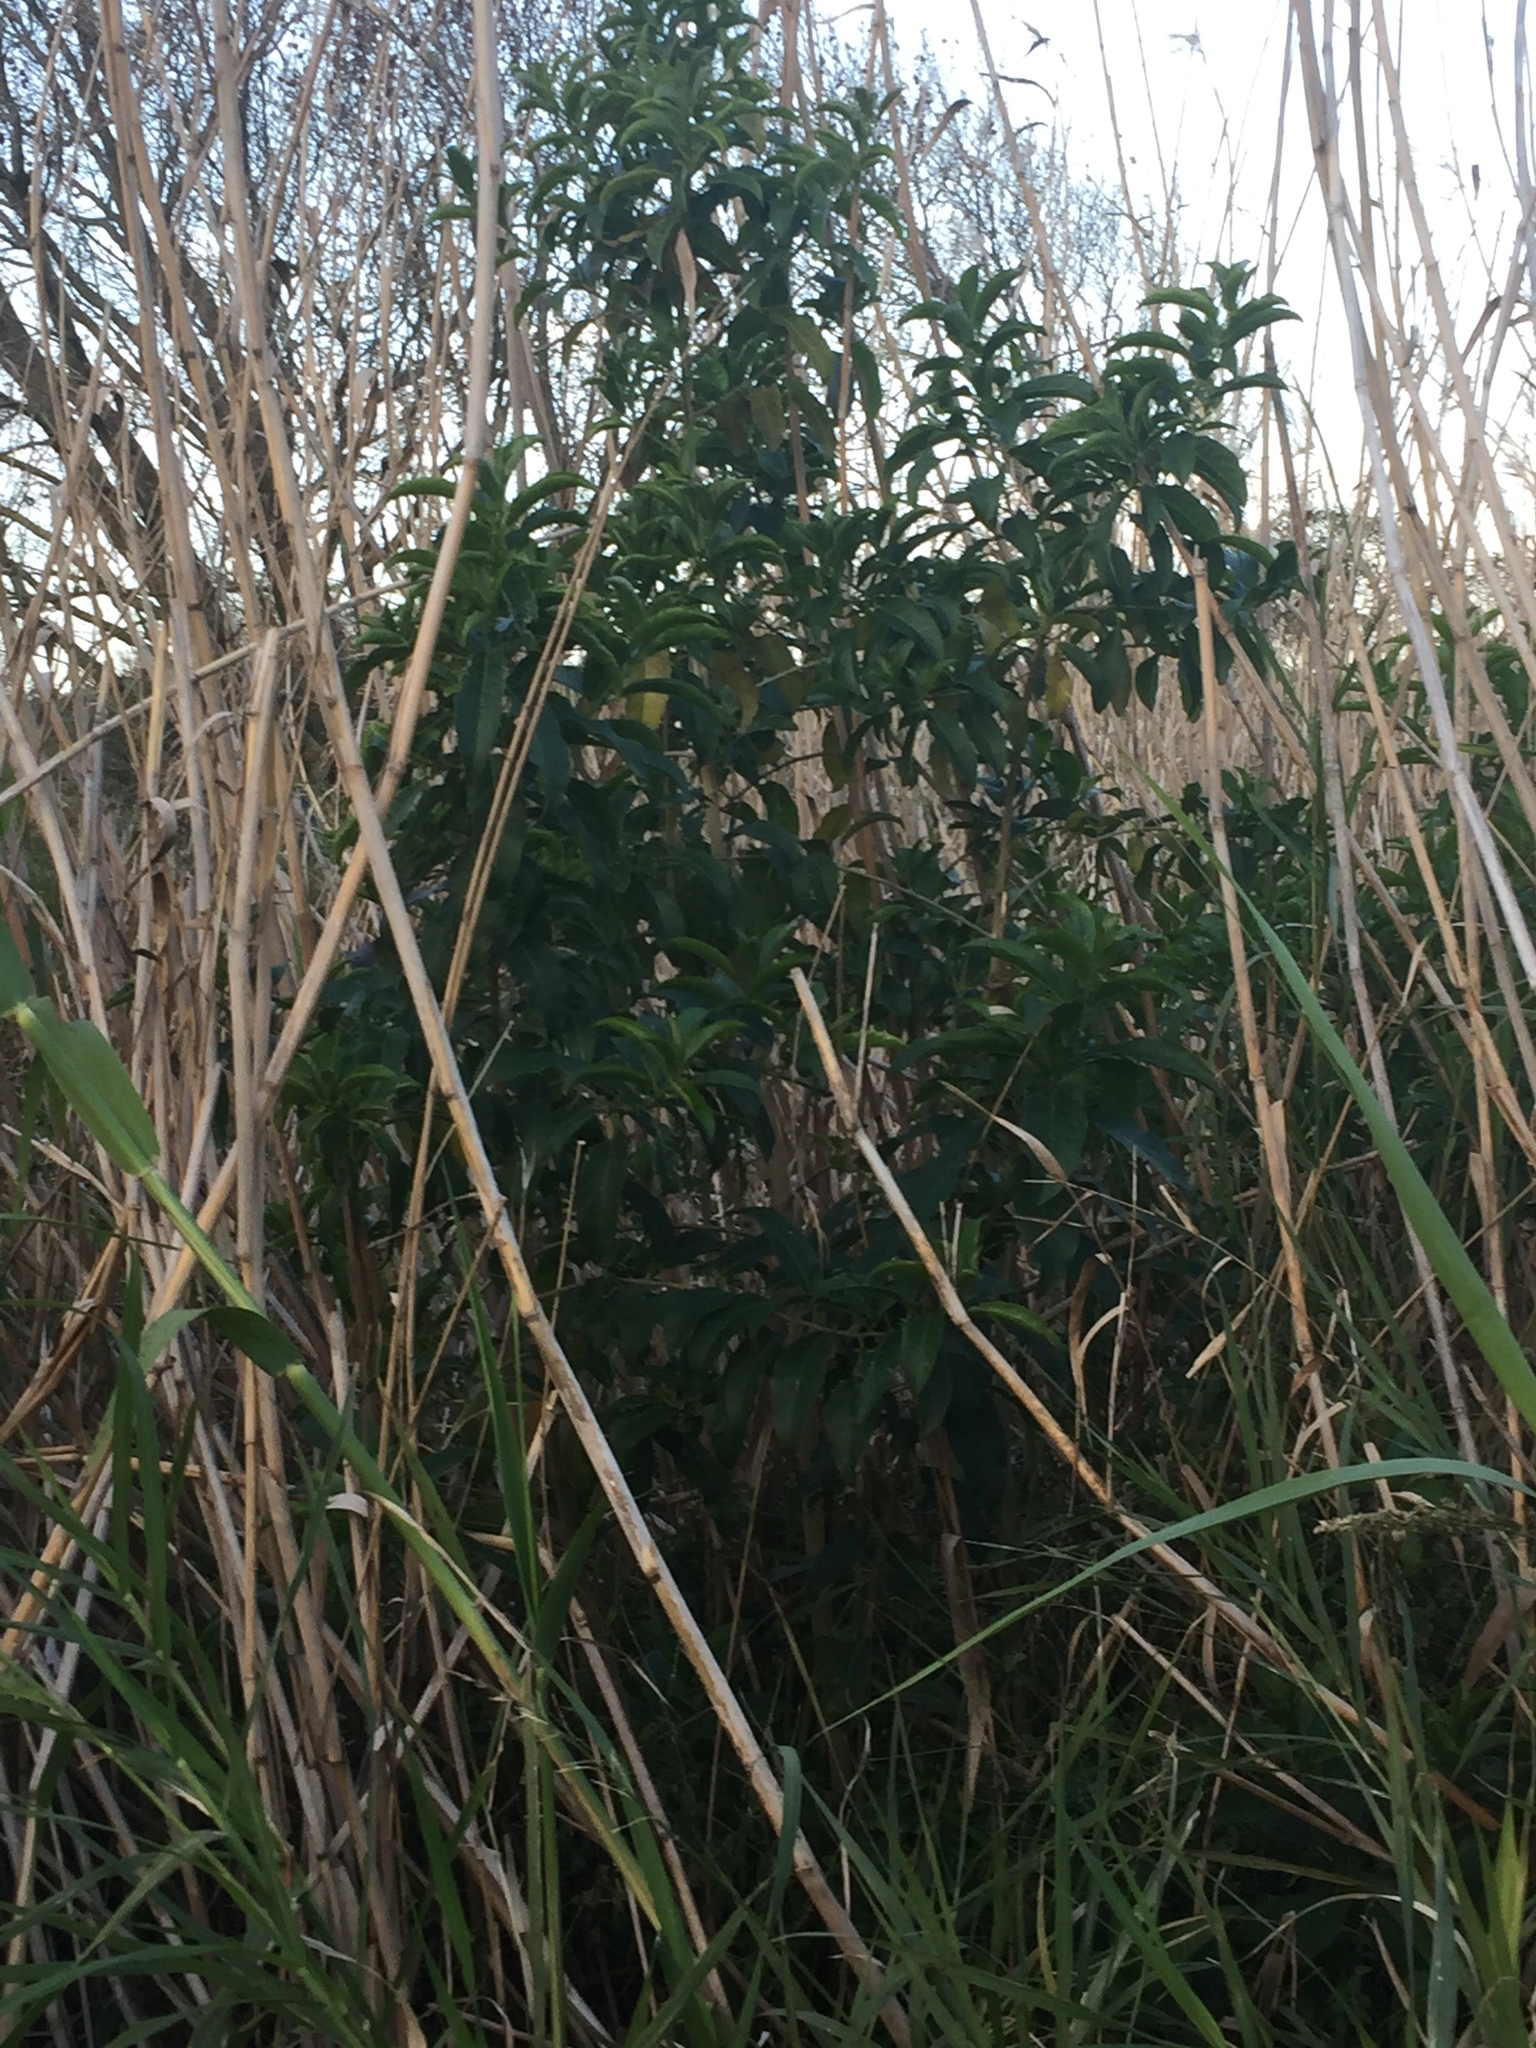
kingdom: Plantae
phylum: Tracheophyta
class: Magnoliopsida
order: Solanales
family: Solanaceae
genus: Cestrum
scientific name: Cestrum laevigatum
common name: Inkberry
